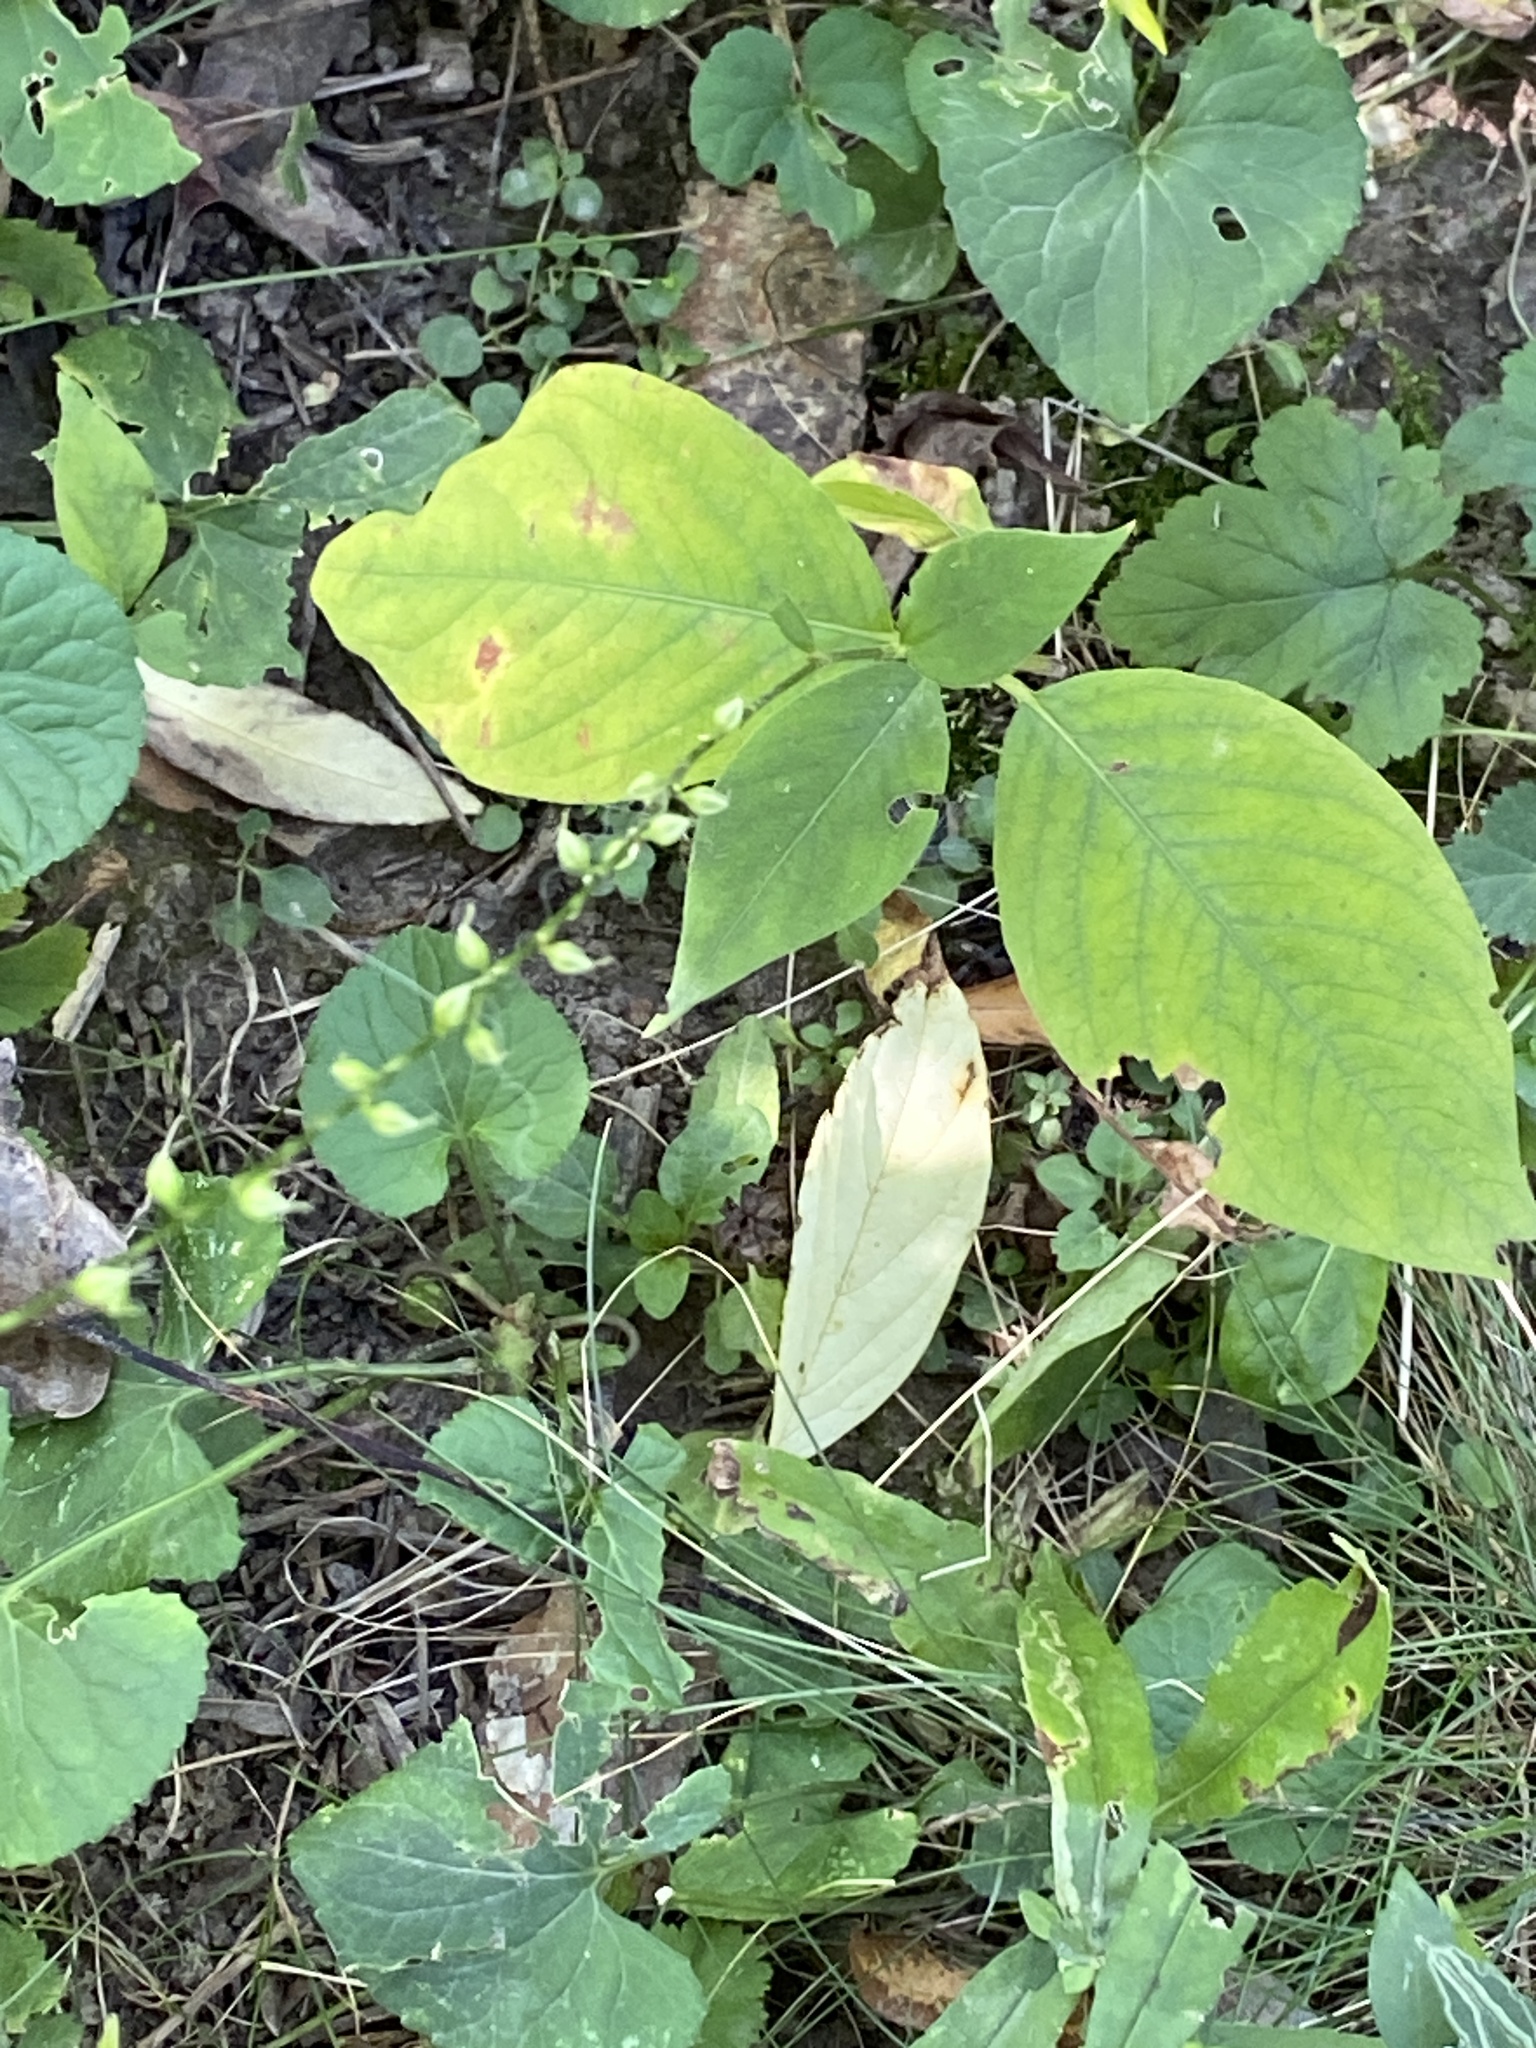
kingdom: Plantae
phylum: Tracheophyta
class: Magnoliopsida
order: Caryophyllales
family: Polygonaceae
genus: Persicaria
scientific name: Persicaria virginiana
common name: Jumpseed
